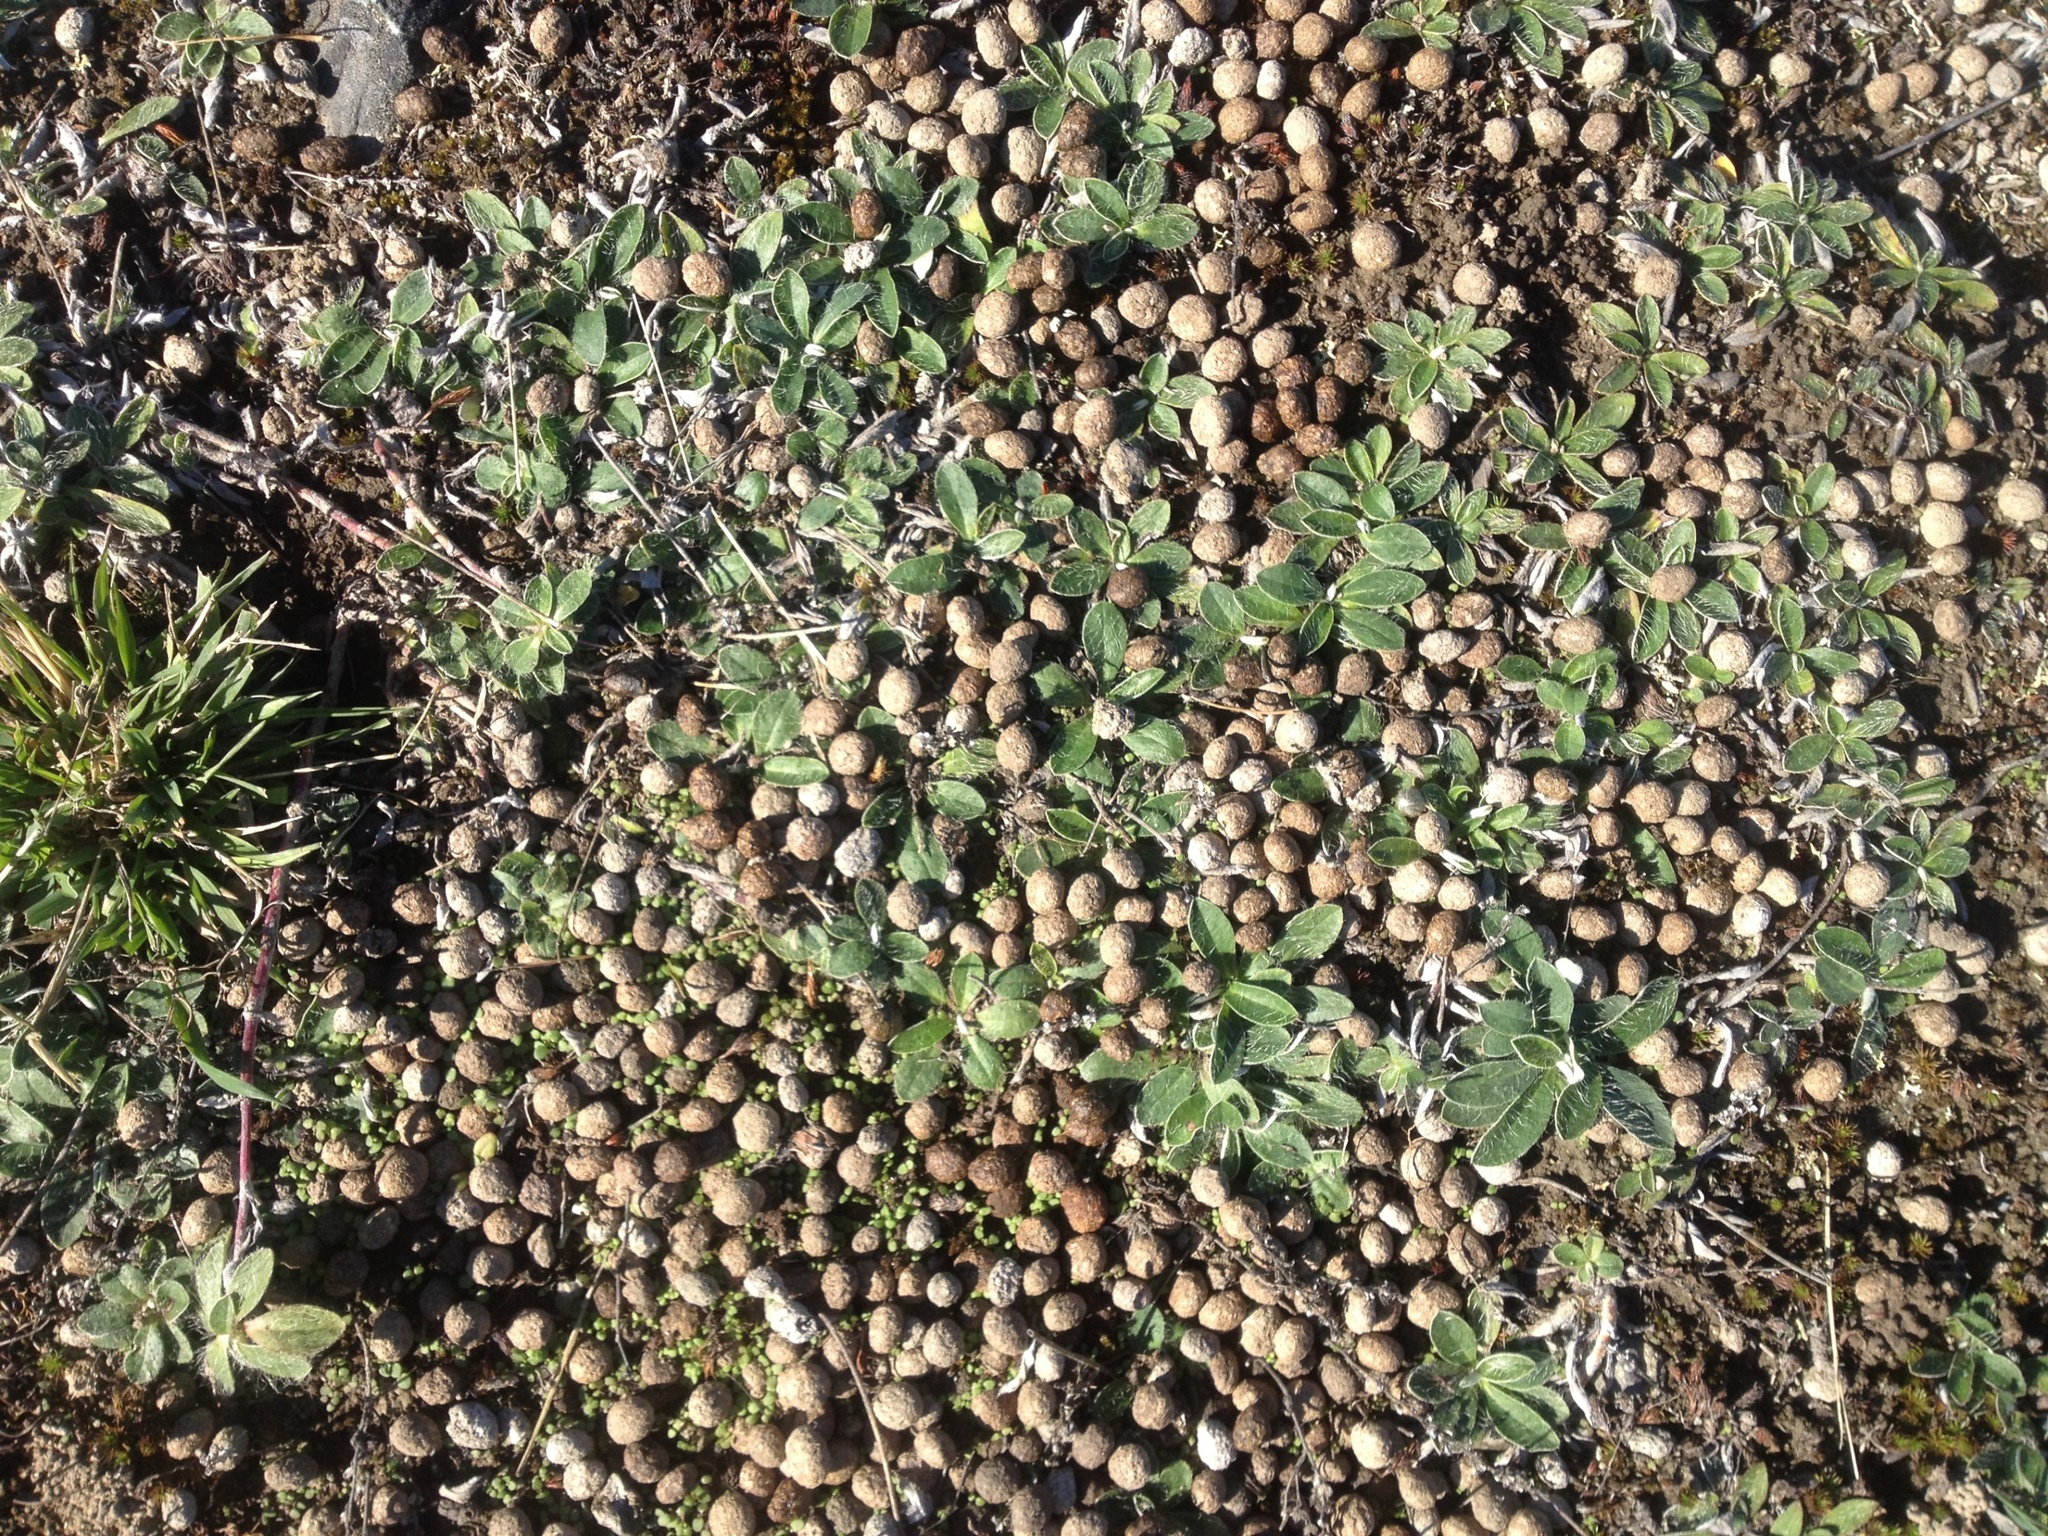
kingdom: Animalia
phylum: Chordata
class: Mammalia
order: Lagomorpha
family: Leporidae
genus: Oryctolagus
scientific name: Oryctolagus cuniculus
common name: European rabbit
